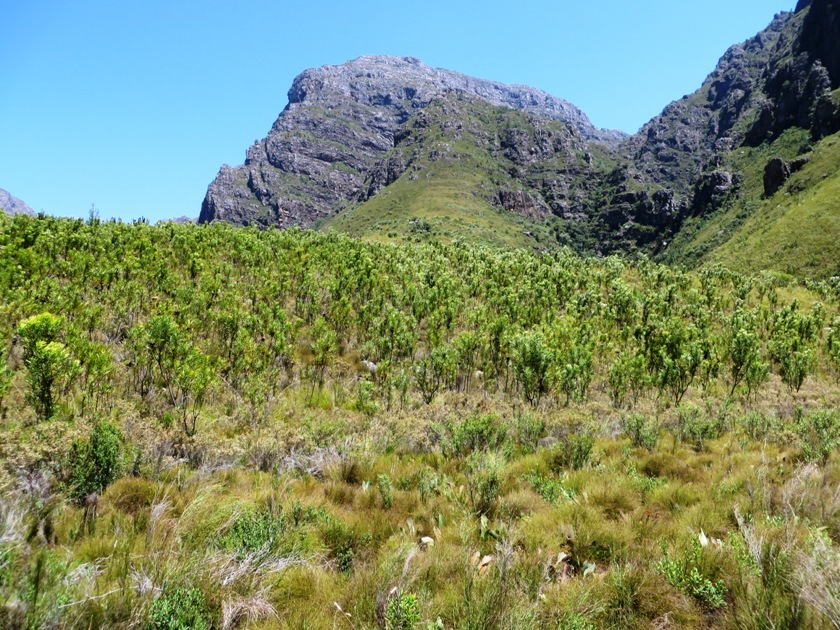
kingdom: Plantae
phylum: Tracheophyta
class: Magnoliopsida
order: Proteales
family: Proteaceae
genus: Protea
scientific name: Protea repens
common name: Sugarbush
